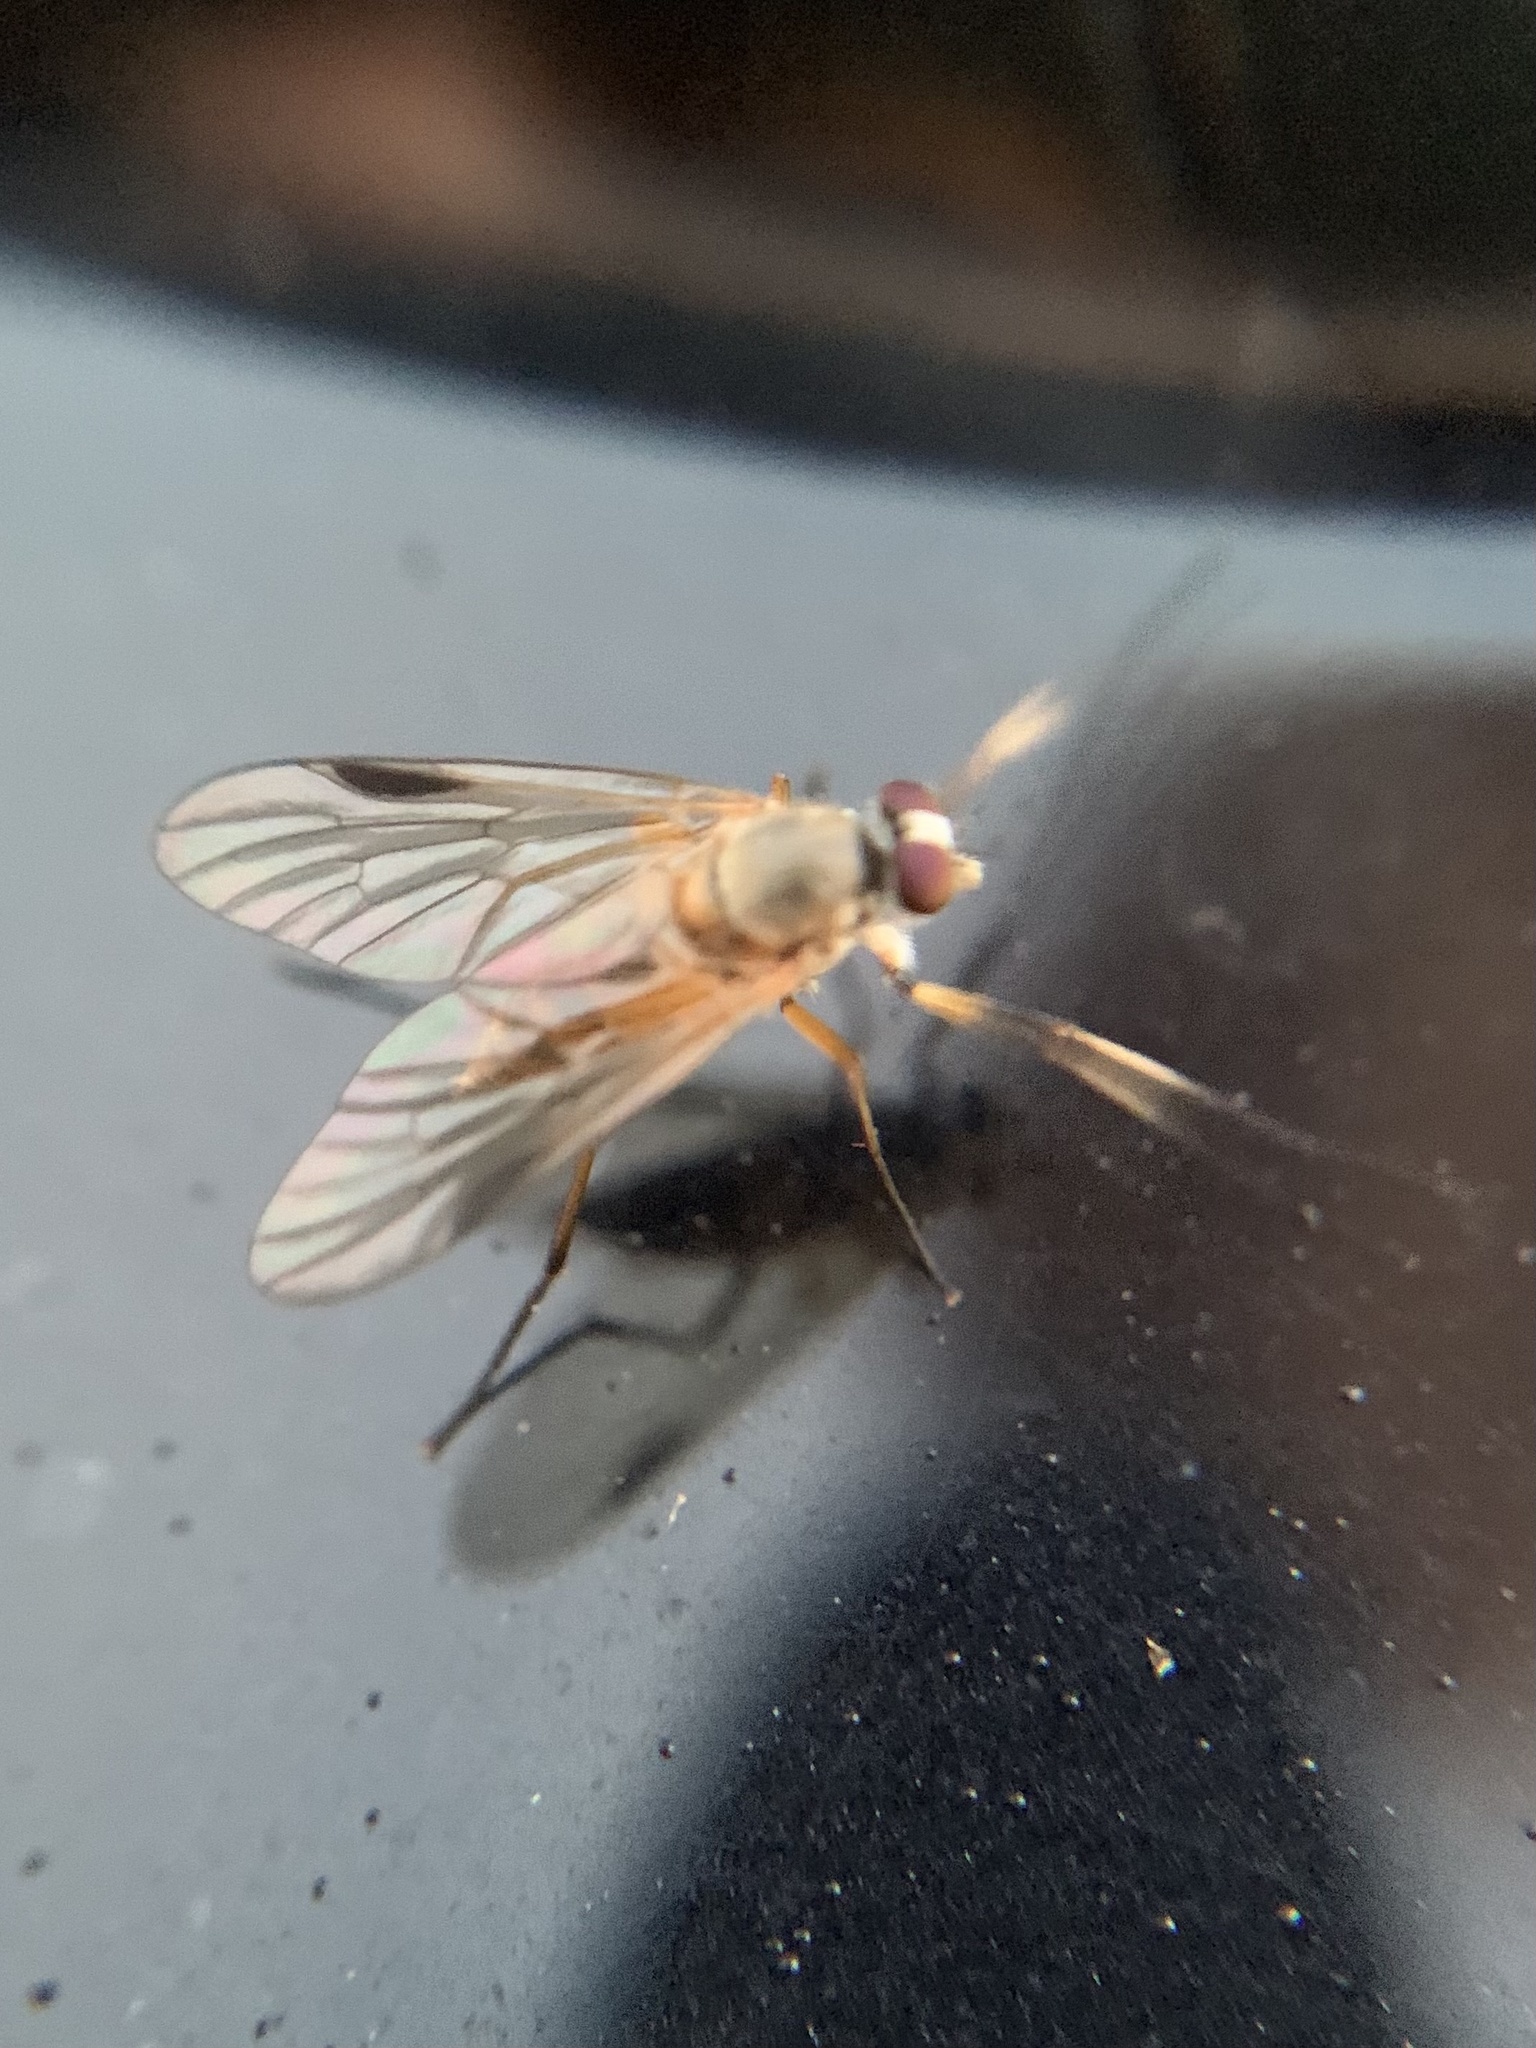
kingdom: Animalia
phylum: Arthropoda
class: Insecta
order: Diptera
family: Rhagionidae
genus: Rhagio
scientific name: Rhagio lineola
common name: Small fleck-winged snipefly
